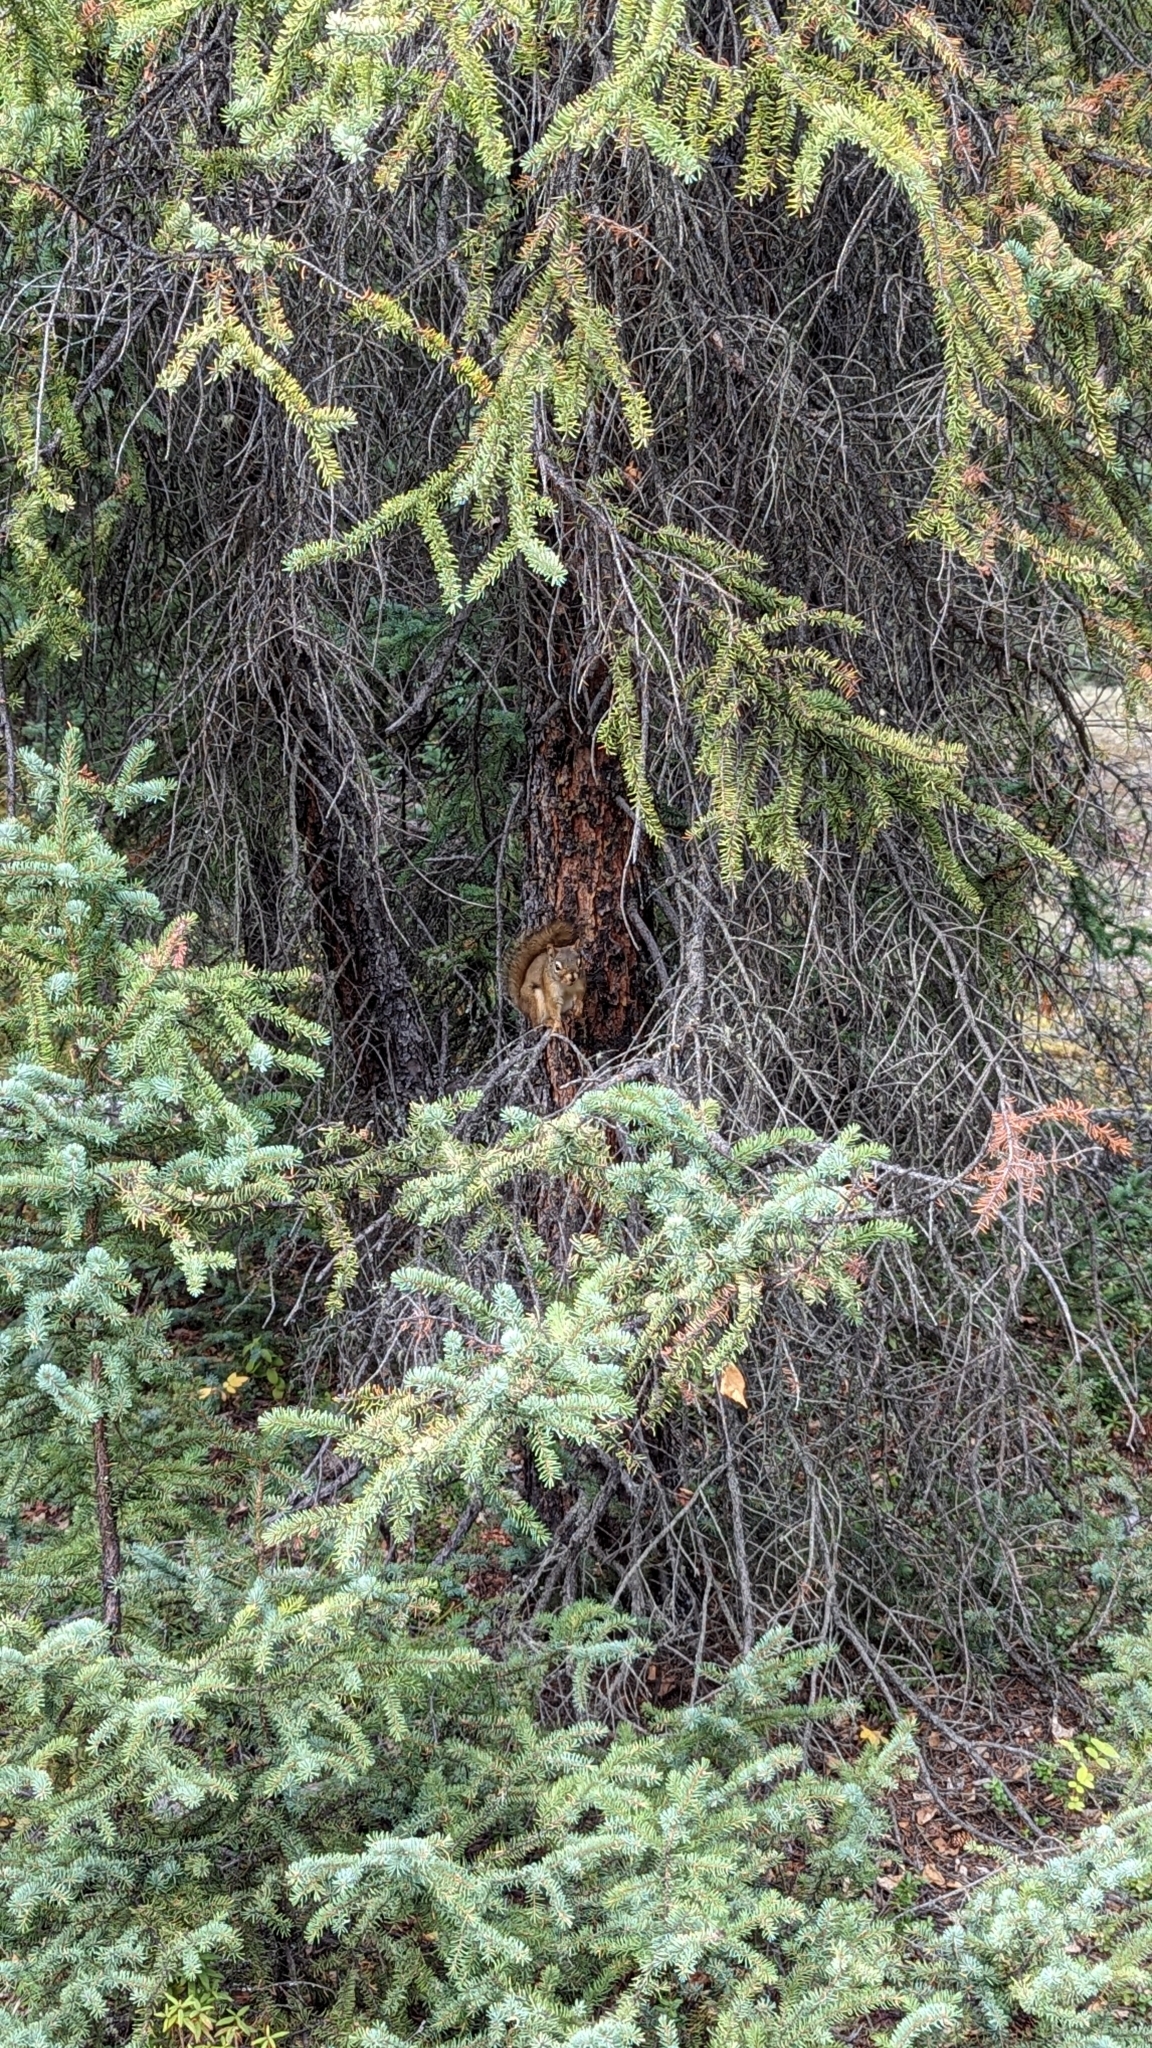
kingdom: Animalia
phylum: Chordata
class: Mammalia
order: Rodentia
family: Sciuridae
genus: Tamiasciurus
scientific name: Tamiasciurus hudsonicus
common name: Red squirrel
